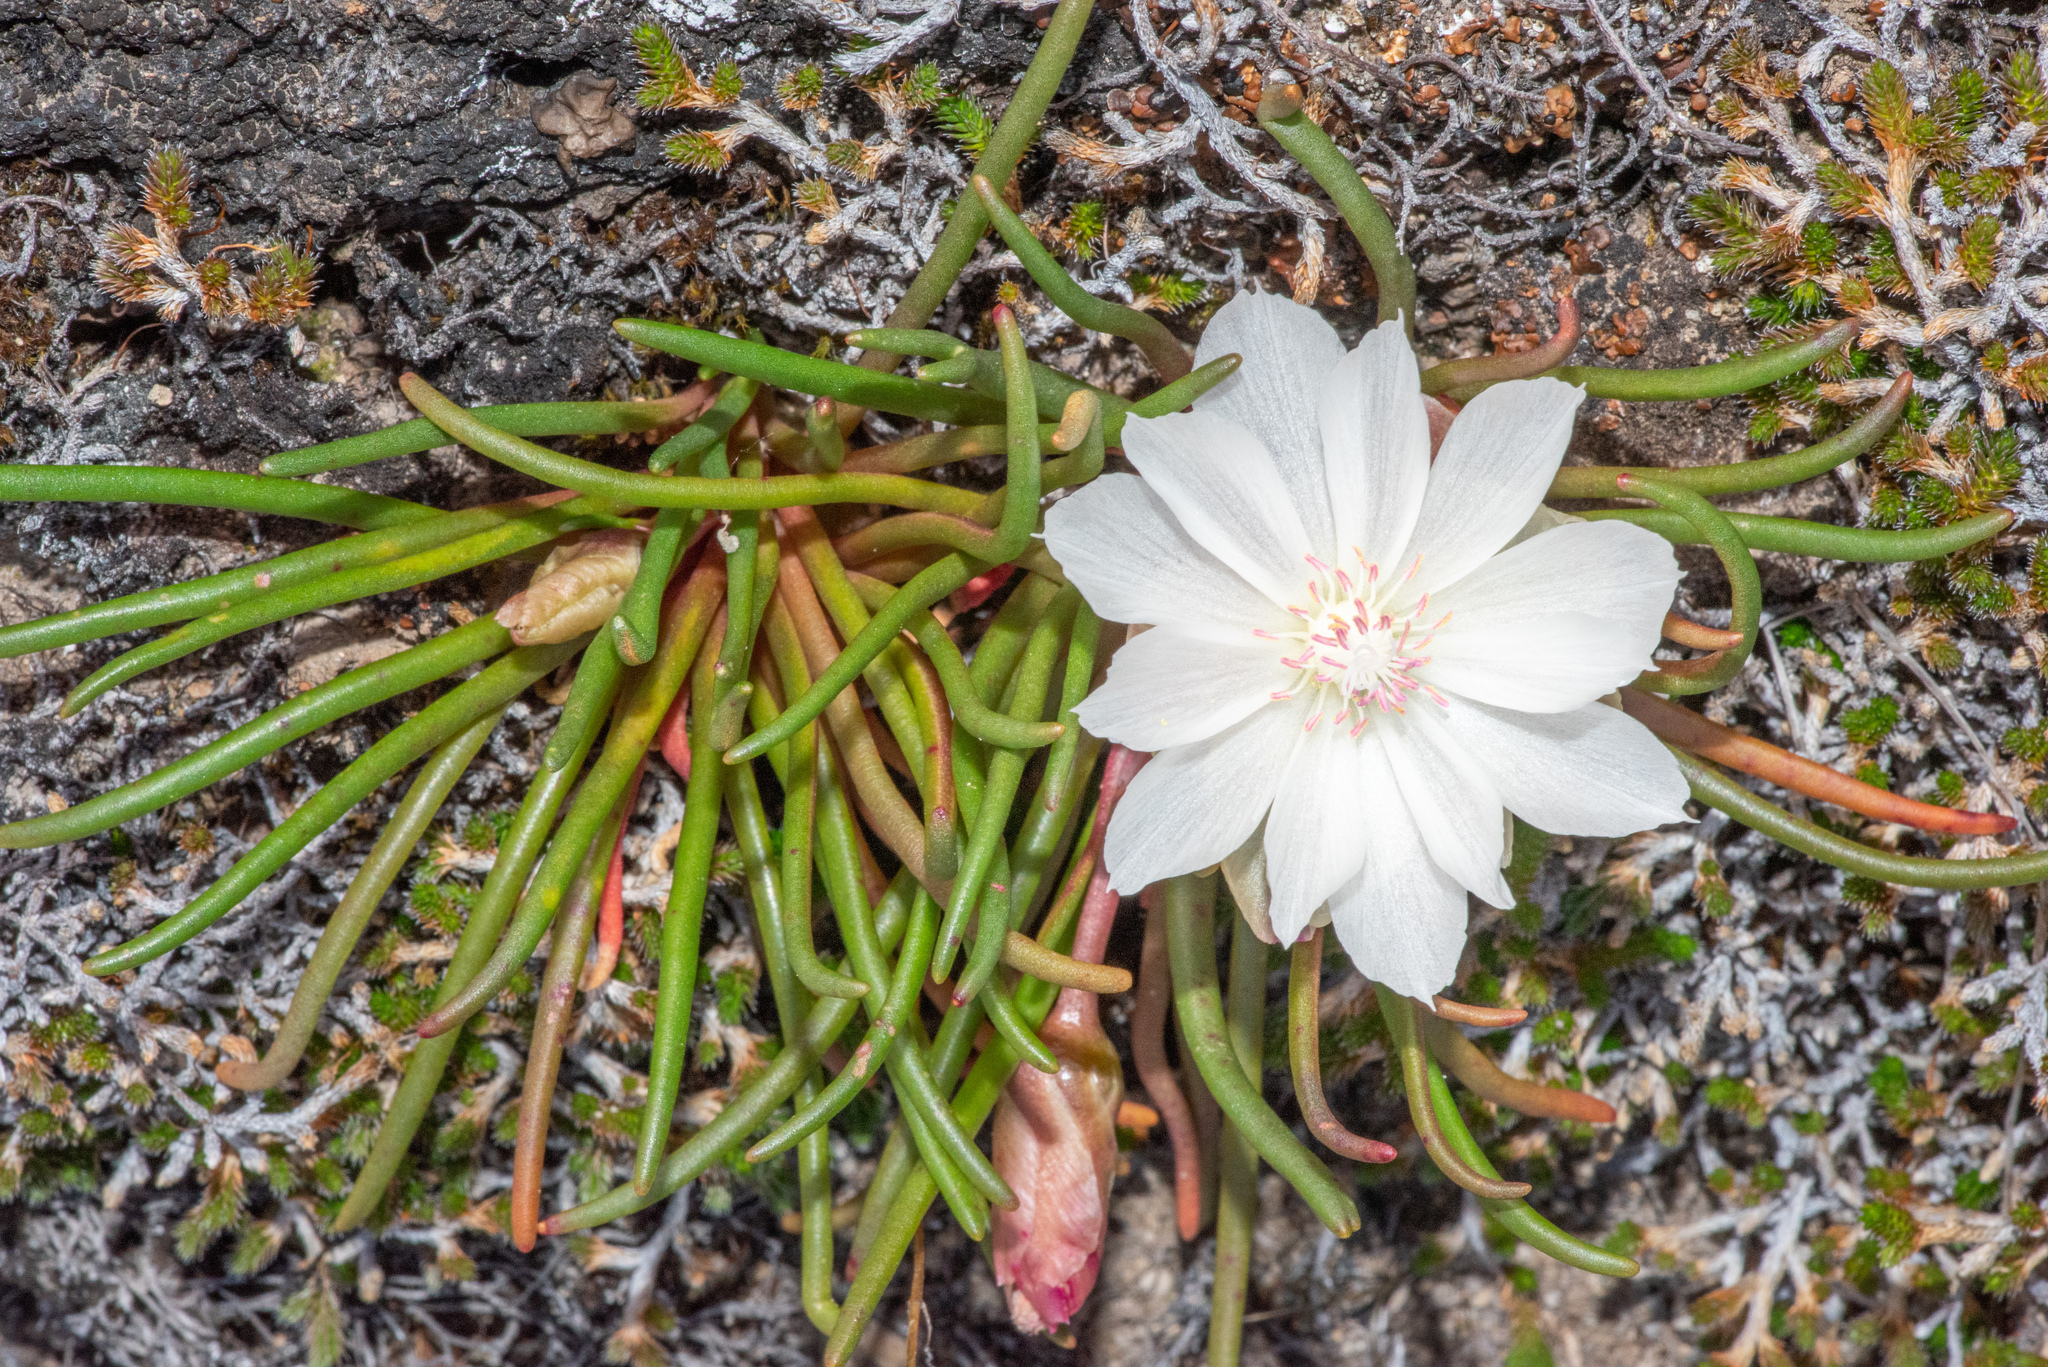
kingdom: Plantae
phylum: Tracheophyta
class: Magnoliopsida
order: Caryophyllales
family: Montiaceae
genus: Lewisia
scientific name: Lewisia rediviva
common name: Bitter-root
